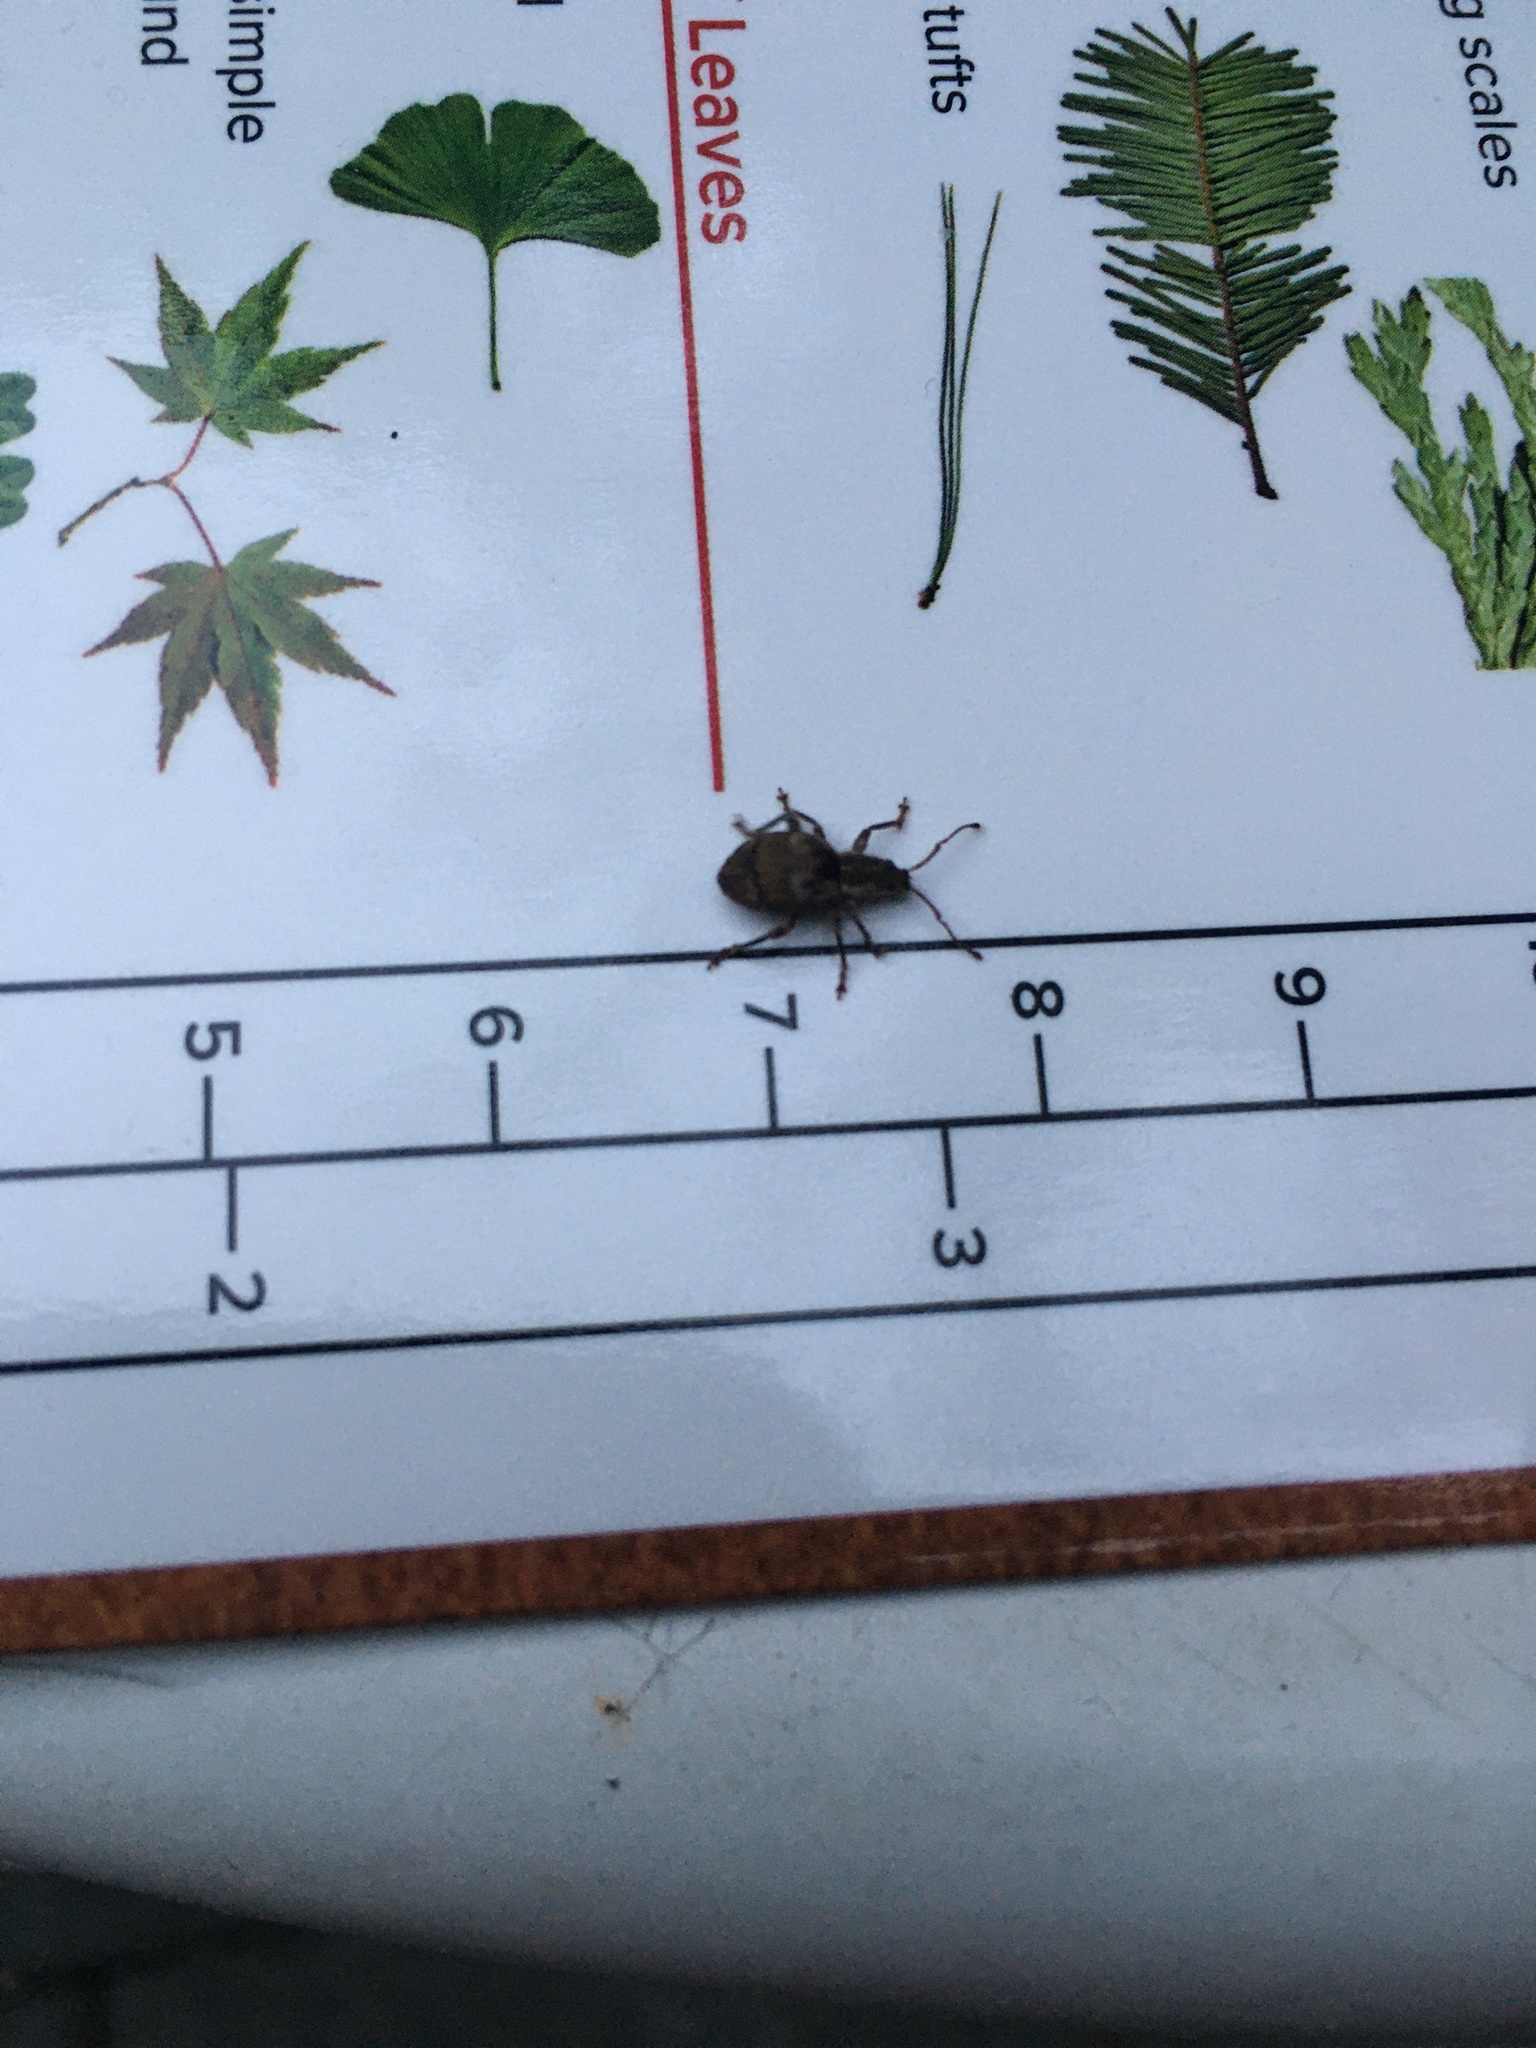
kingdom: Animalia
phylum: Arthropoda
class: Insecta
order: Coleoptera
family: Curculionidae
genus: Sciopithes
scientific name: Sciopithes obscurus
